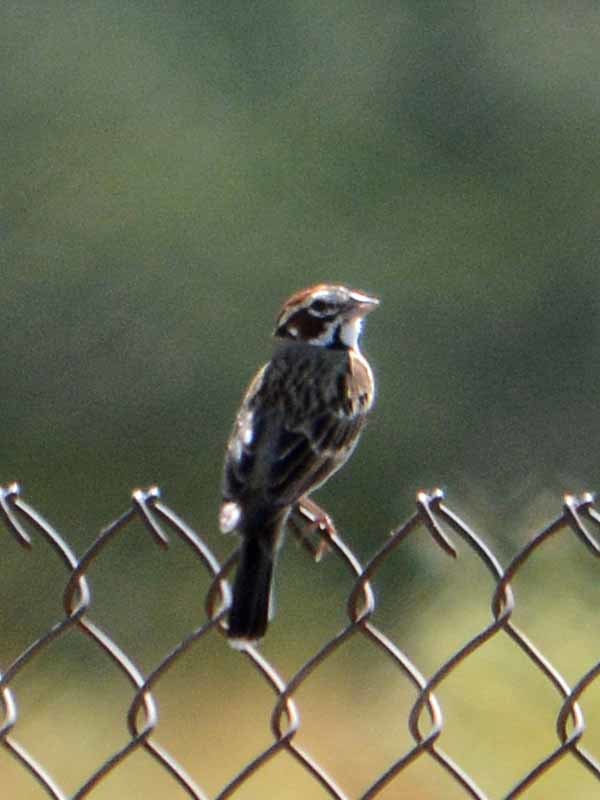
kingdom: Animalia
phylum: Chordata
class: Aves
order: Passeriformes
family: Passerellidae
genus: Chondestes
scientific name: Chondestes grammacus
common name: Lark sparrow
